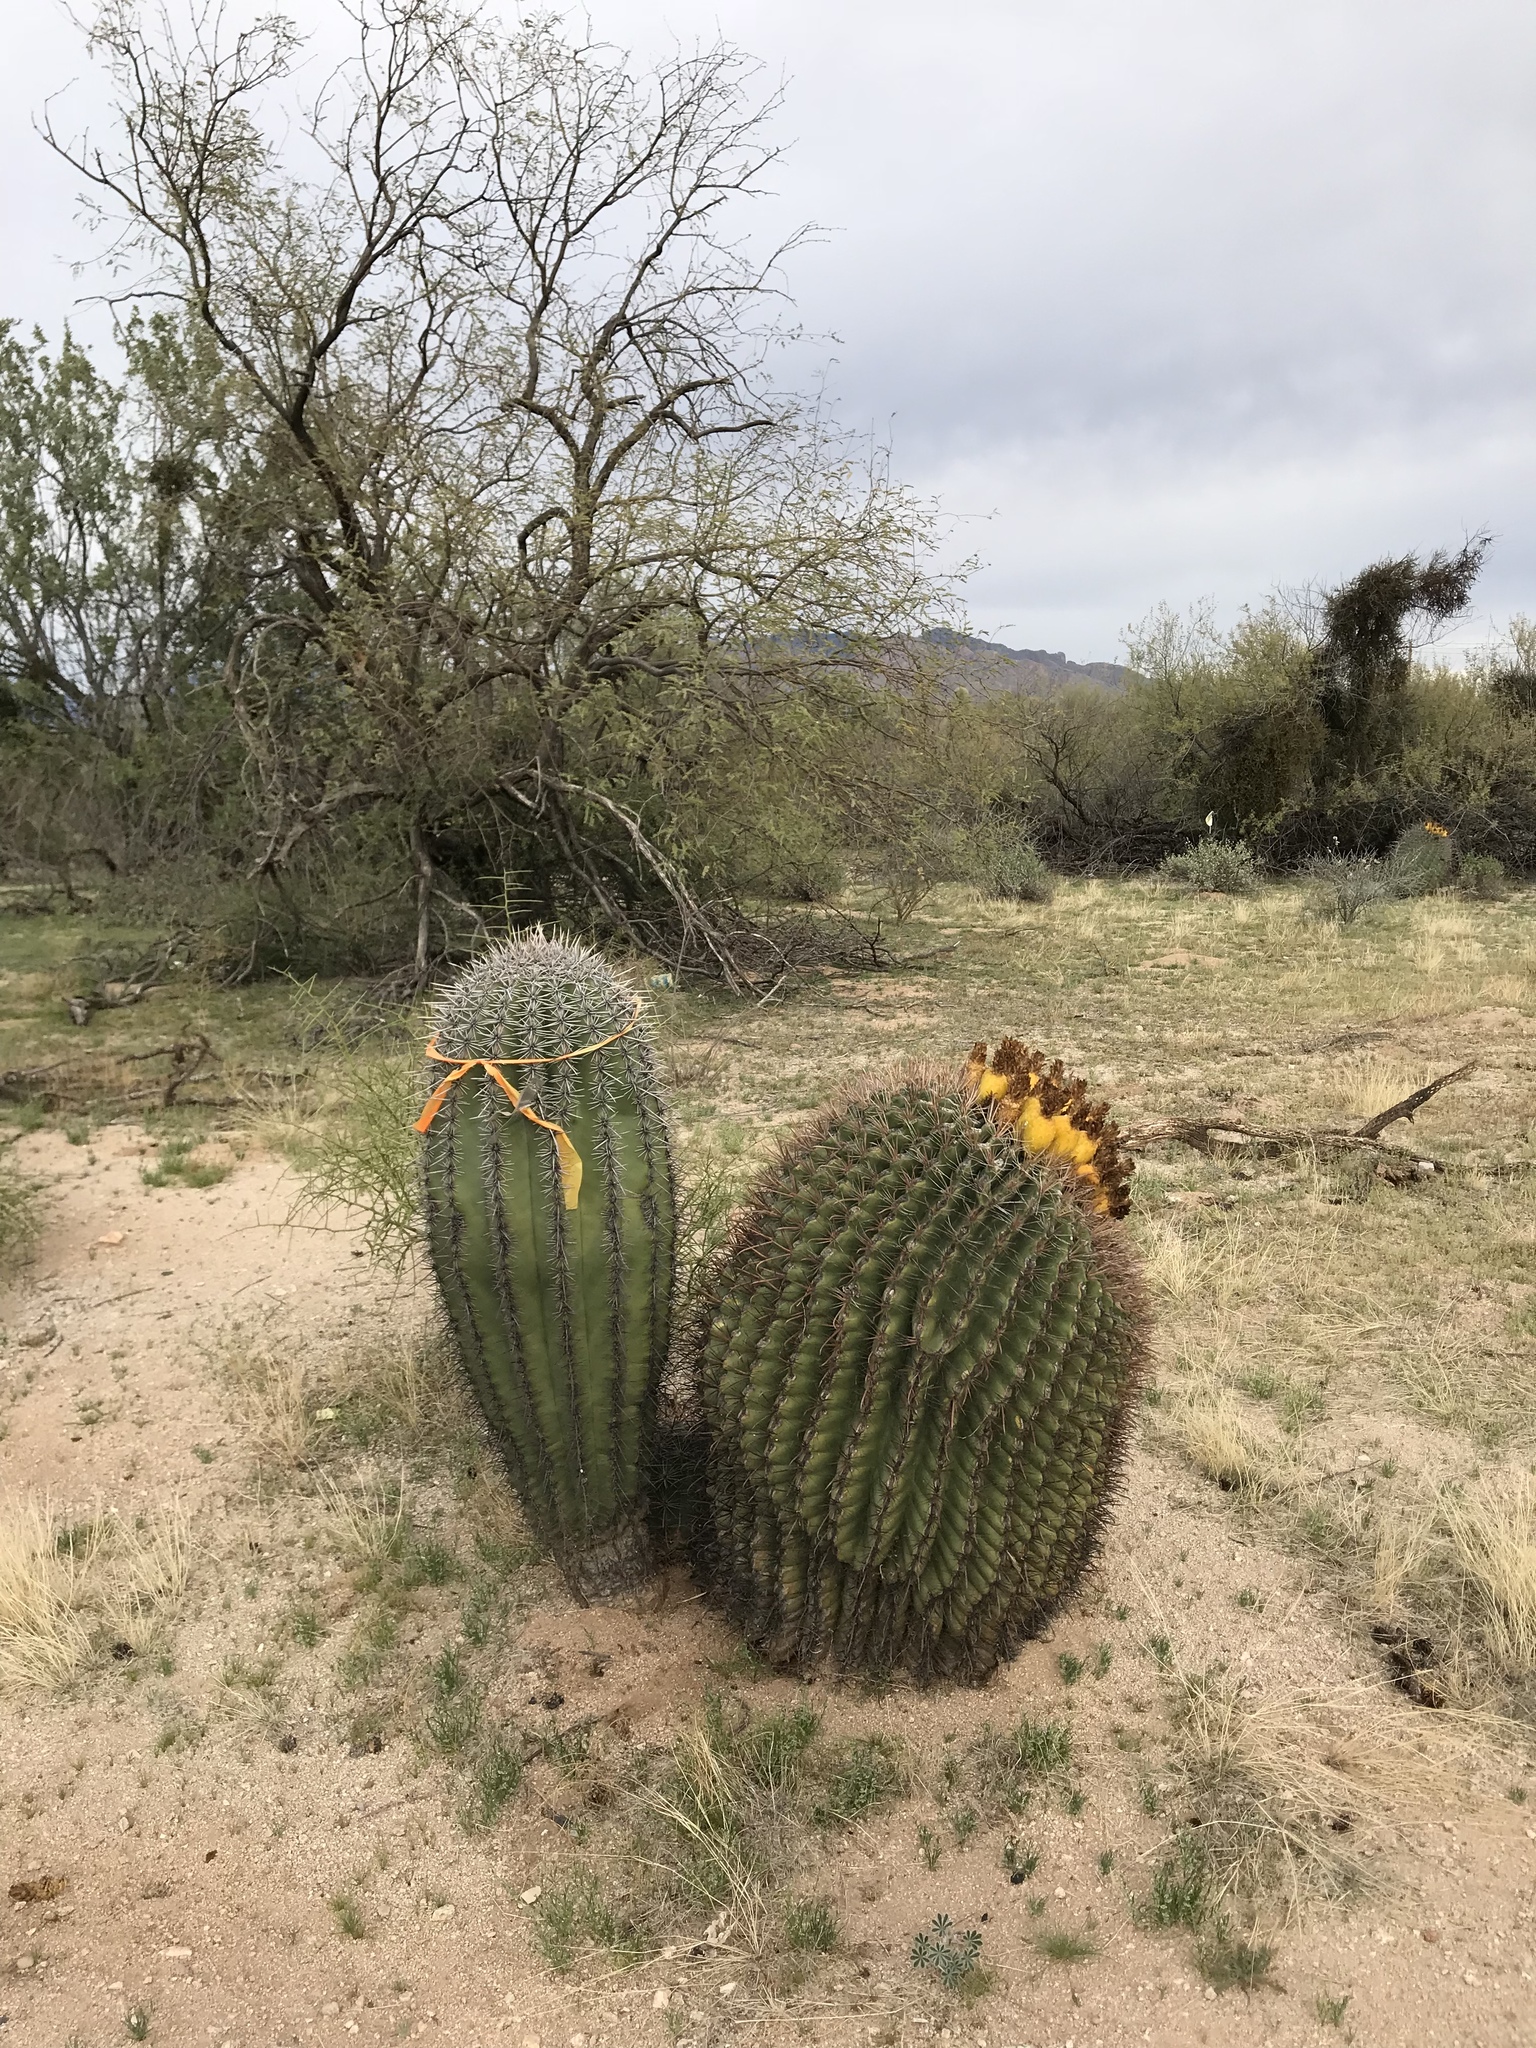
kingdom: Plantae
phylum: Tracheophyta
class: Magnoliopsida
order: Caryophyllales
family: Cactaceae
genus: Ferocactus
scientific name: Ferocactus wislizeni
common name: Candy barrel cactus
